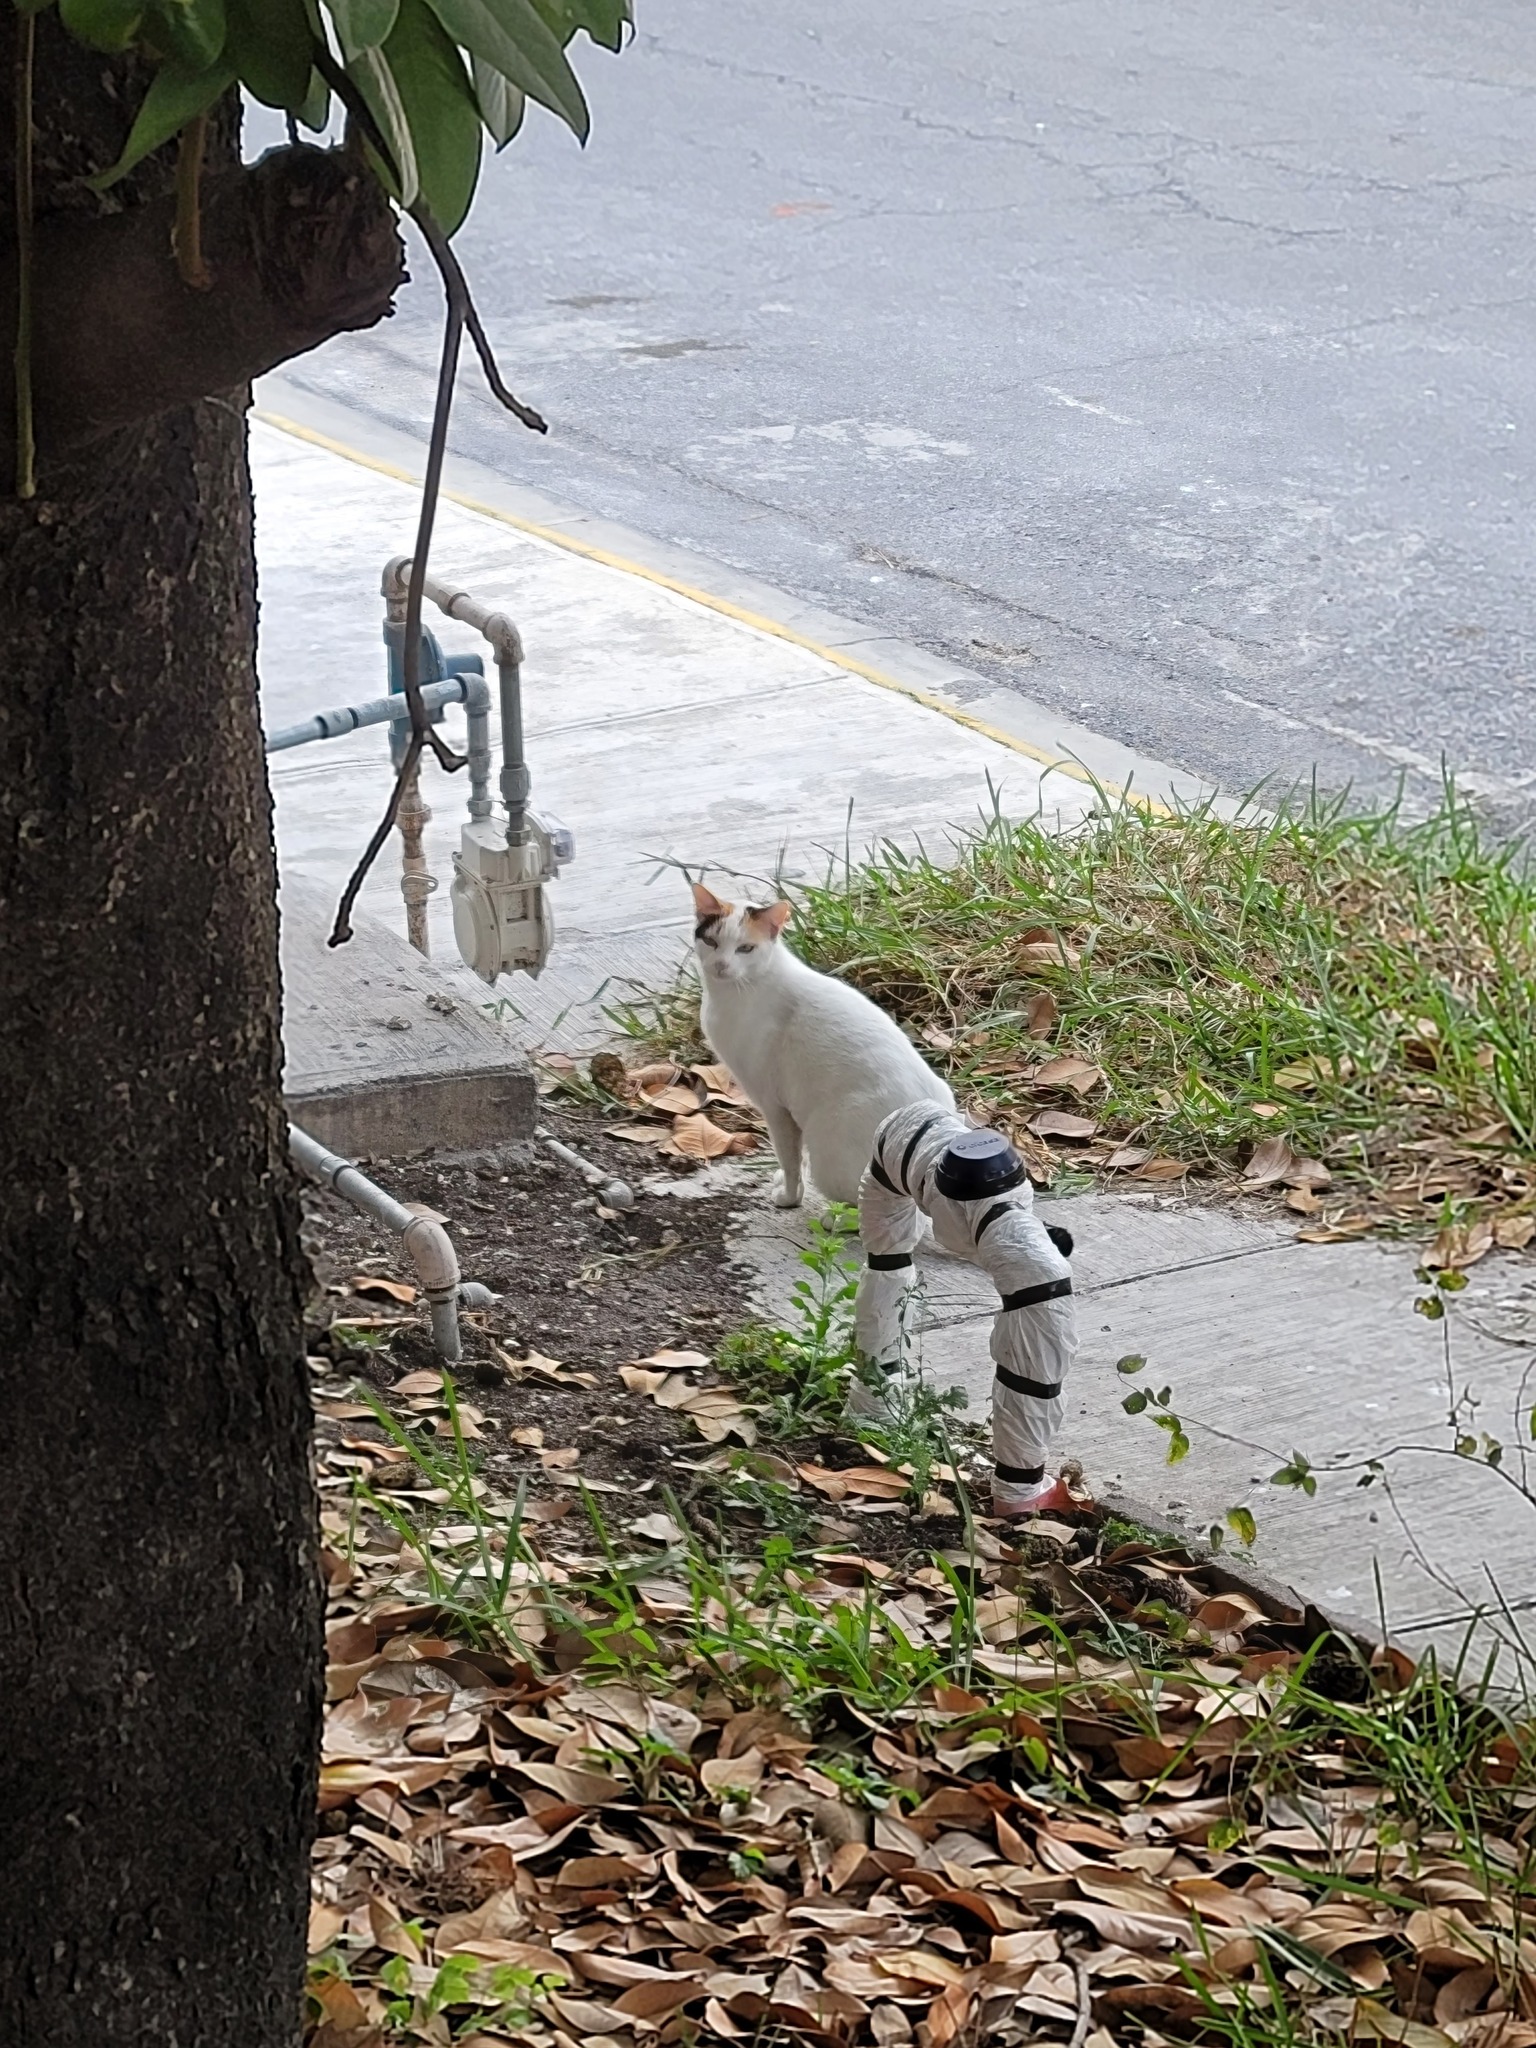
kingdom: Animalia
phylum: Chordata
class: Mammalia
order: Carnivora
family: Felidae
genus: Felis
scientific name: Felis catus
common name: Domestic cat
